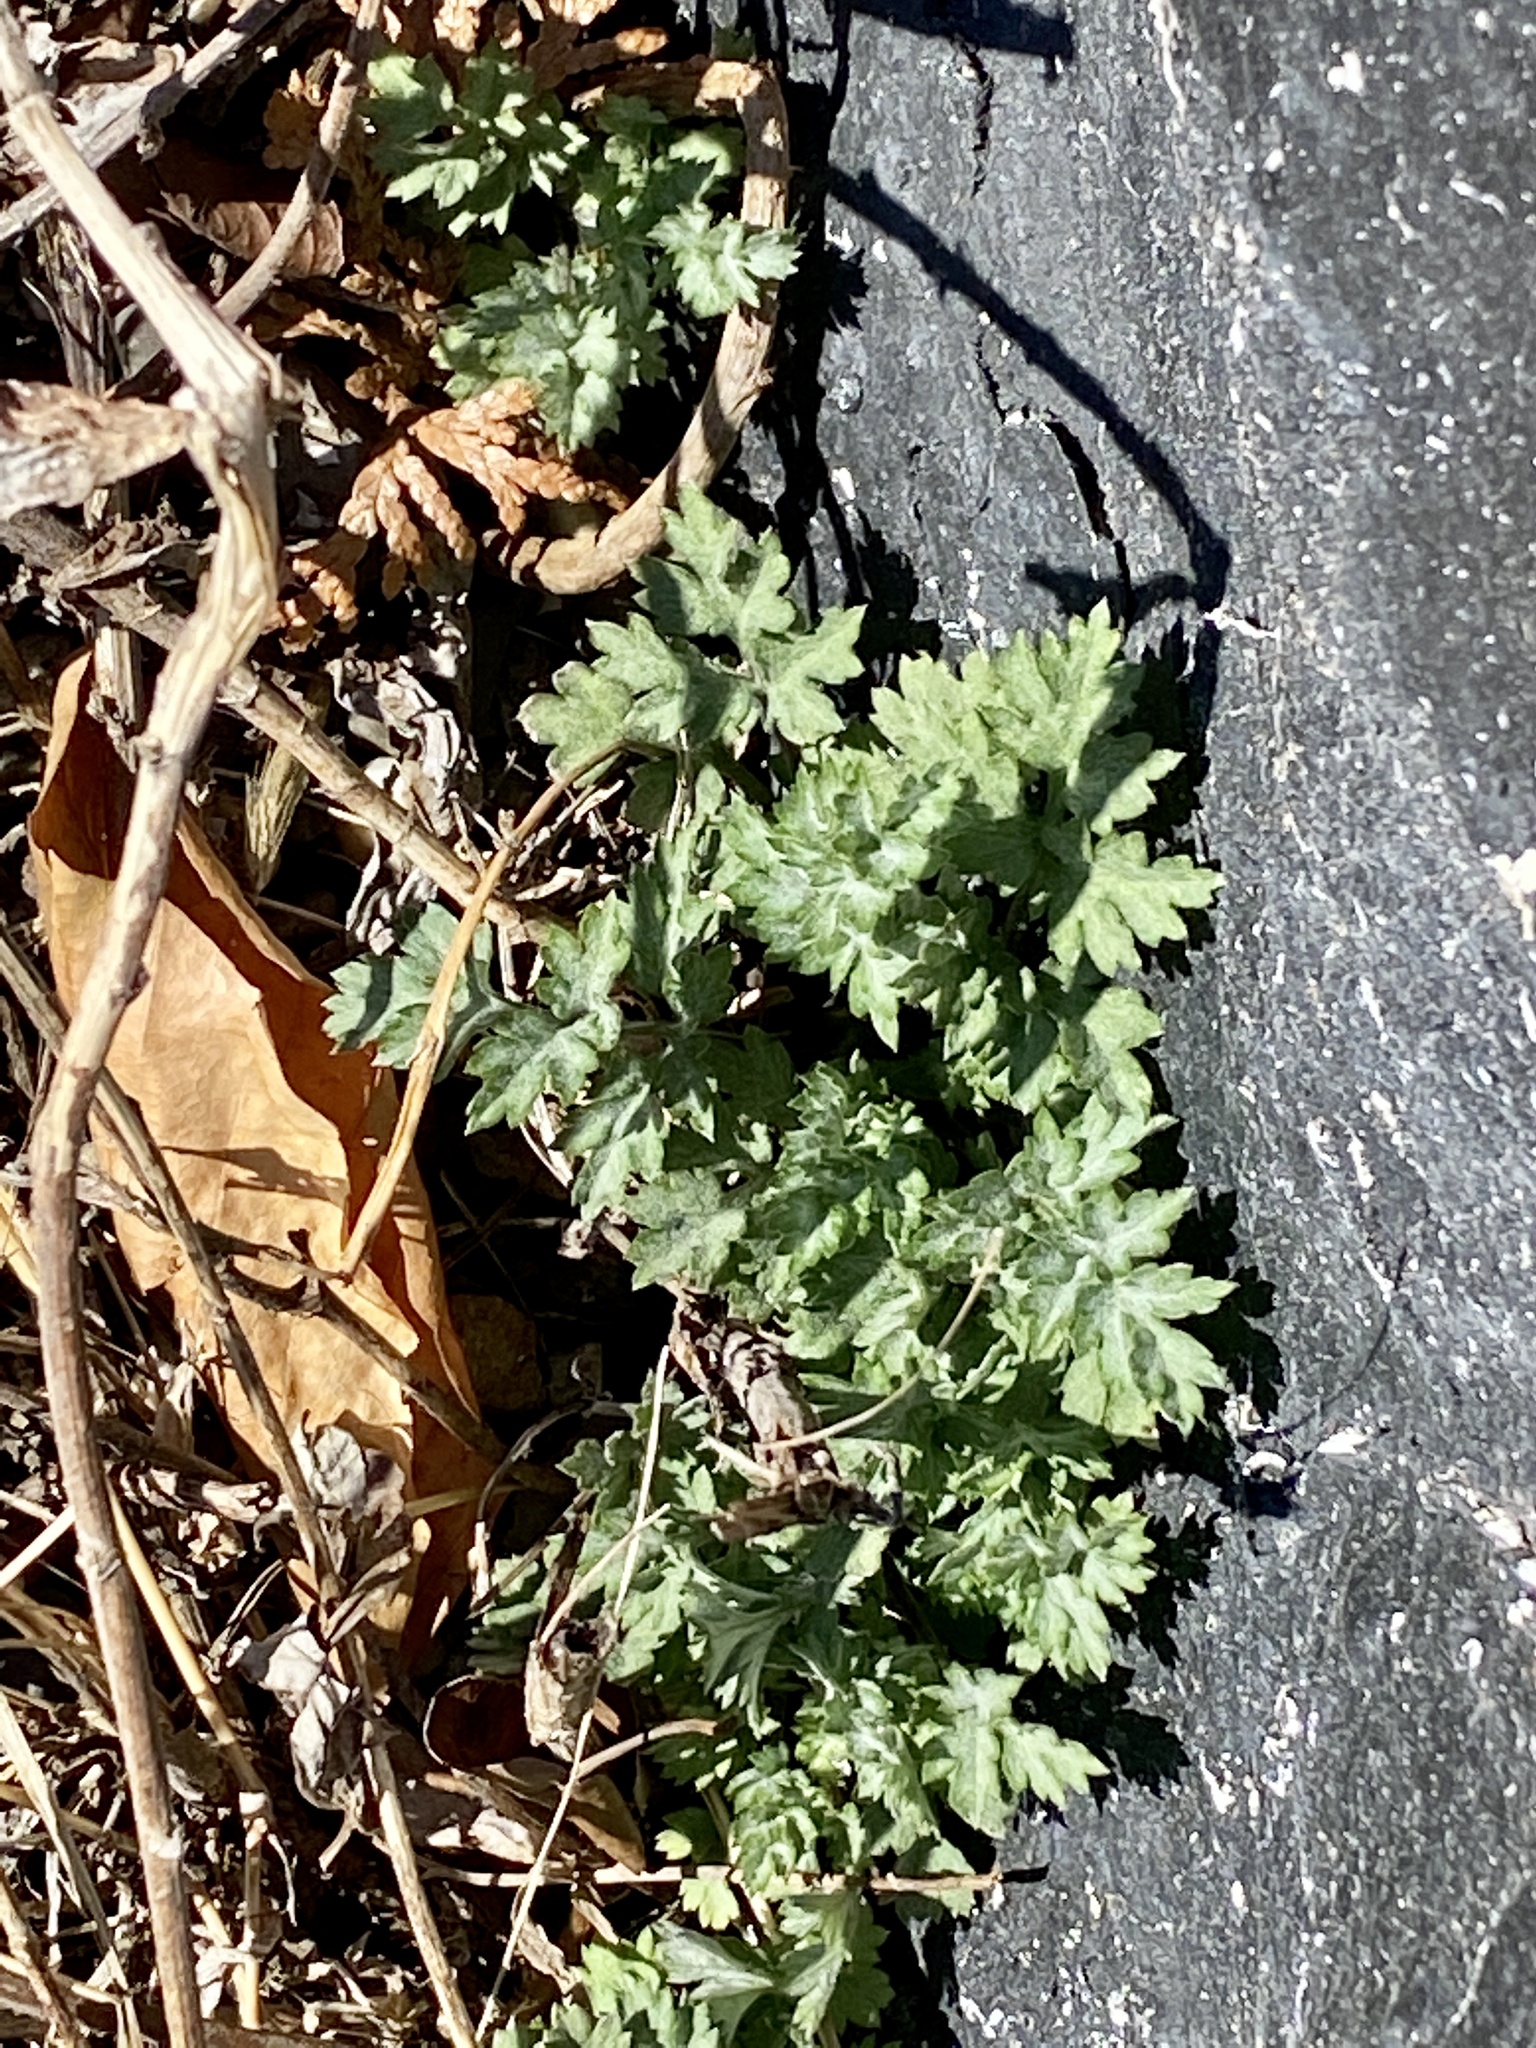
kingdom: Plantae
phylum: Tracheophyta
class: Magnoliopsida
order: Asterales
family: Asteraceae
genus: Artemisia
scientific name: Artemisia vulgaris
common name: Mugwort
